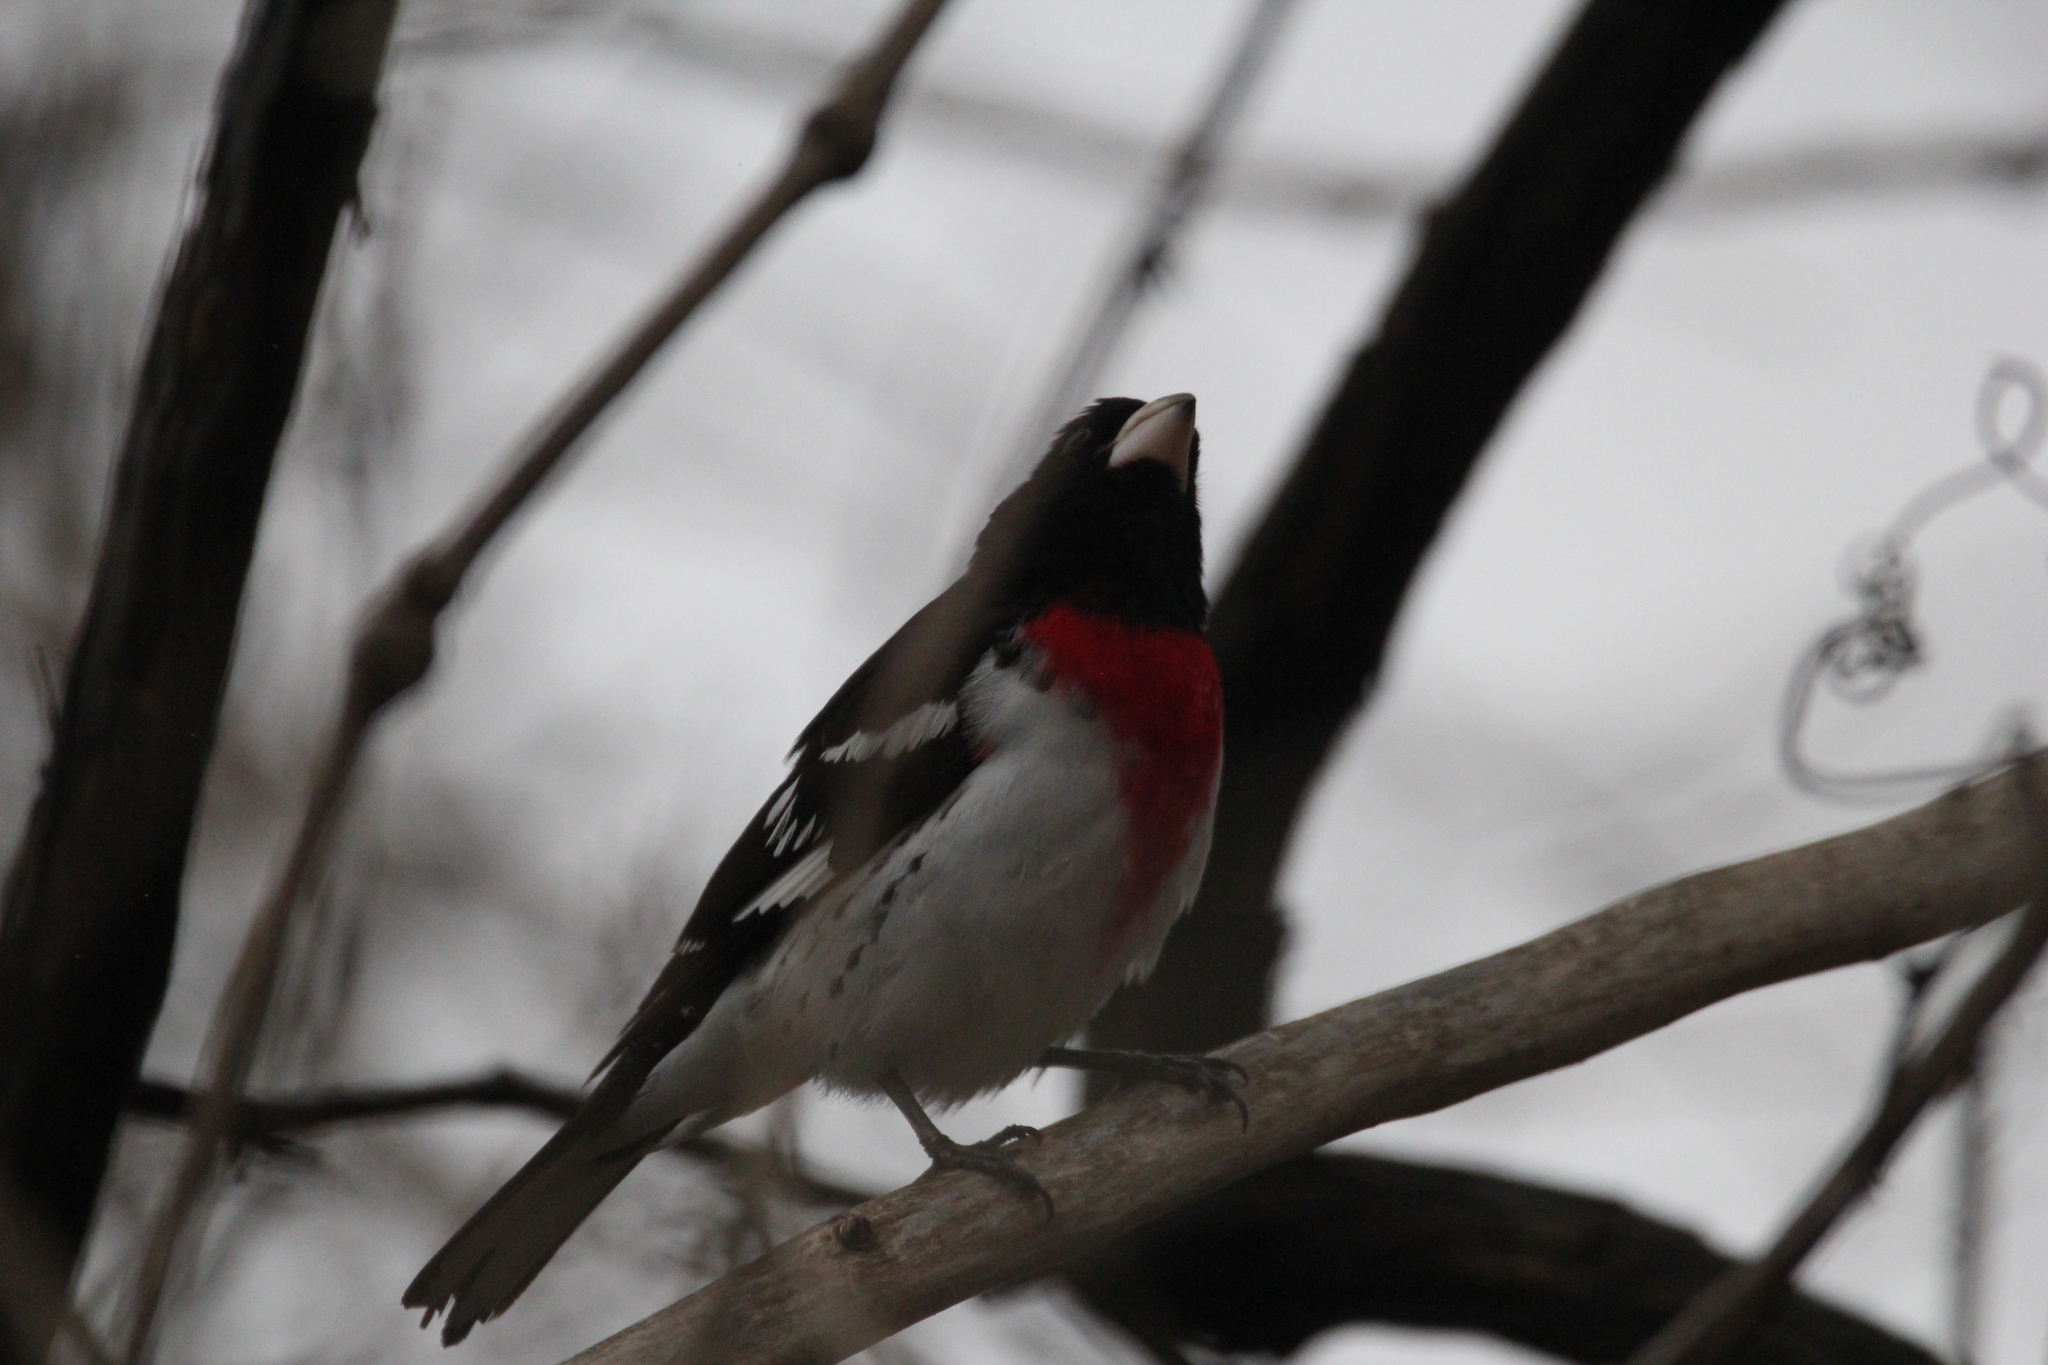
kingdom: Animalia
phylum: Chordata
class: Aves
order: Passeriformes
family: Cardinalidae
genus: Pheucticus
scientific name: Pheucticus ludovicianus
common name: Rose-breasted grosbeak
